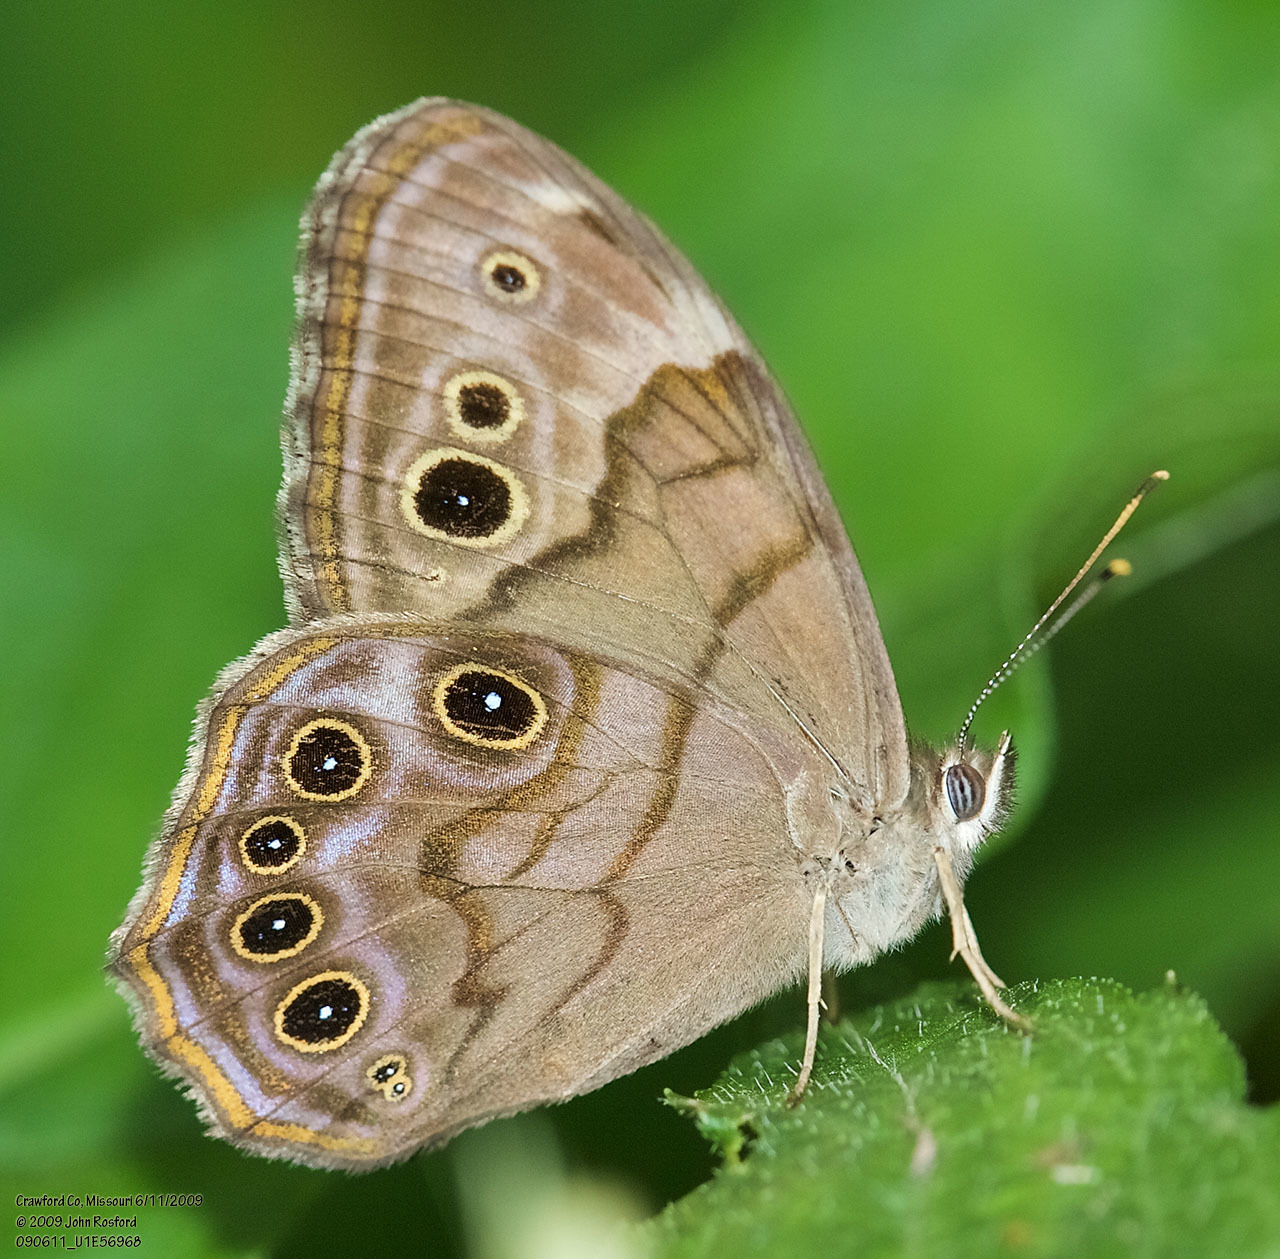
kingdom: Animalia
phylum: Arthropoda
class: Insecta
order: Lepidoptera
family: Nymphalidae
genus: Lethe
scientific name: Lethe anthedon
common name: Northern pearly-eye
